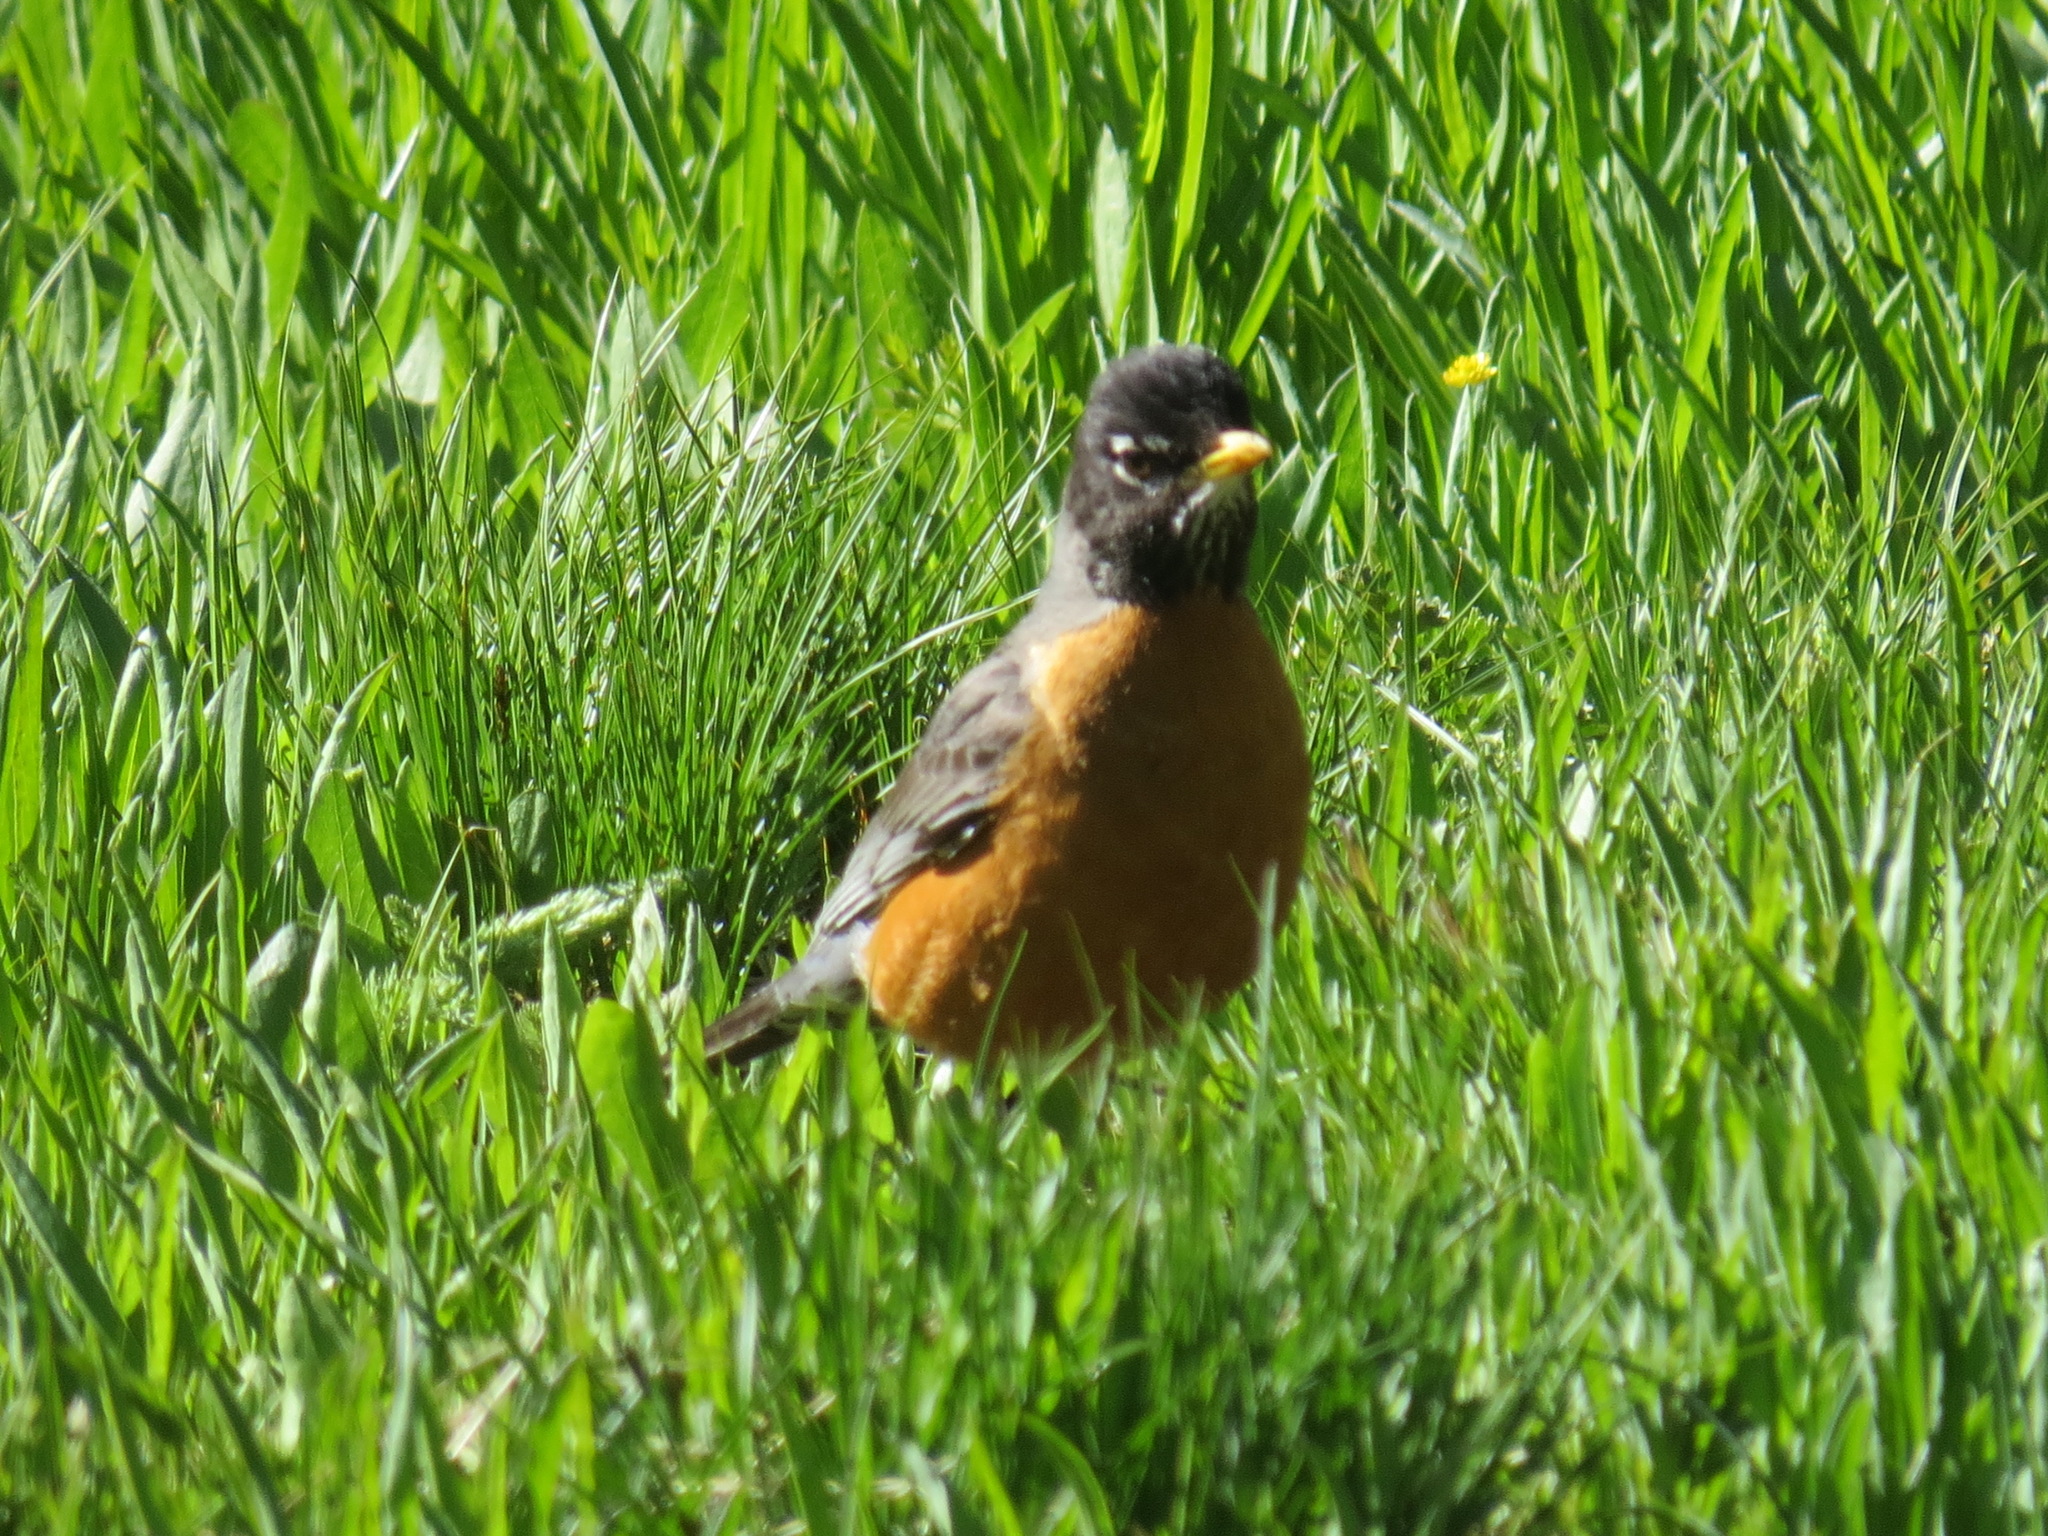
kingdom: Animalia
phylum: Chordata
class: Aves
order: Passeriformes
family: Turdidae
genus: Turdus
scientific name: Turdus migratorius
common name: American robin
